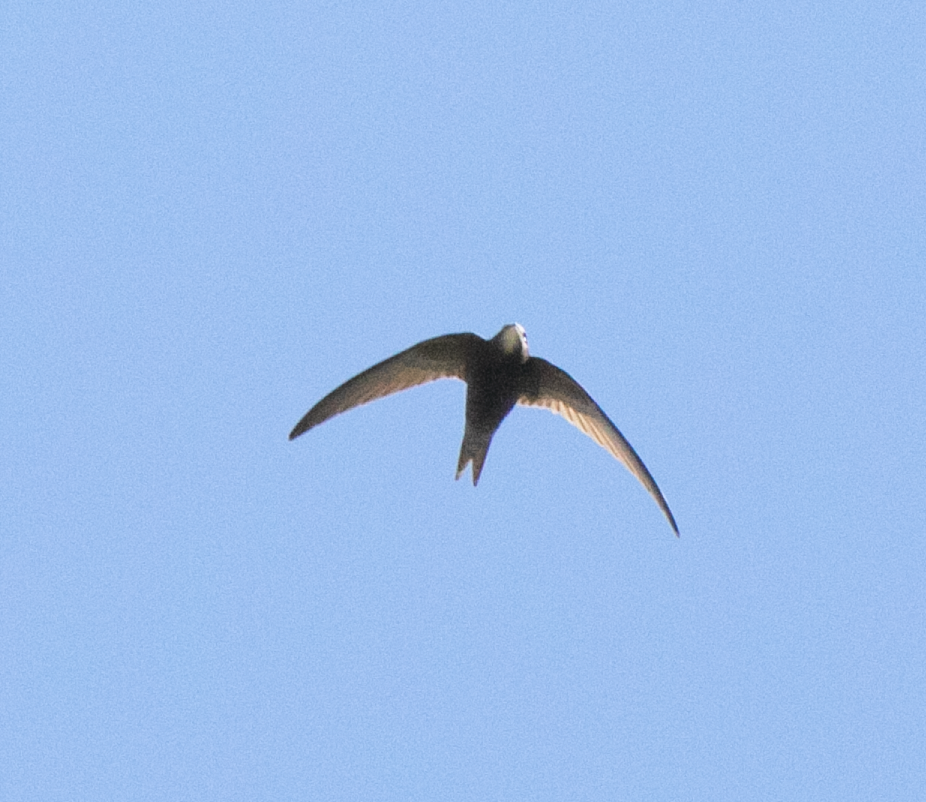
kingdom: Animalia
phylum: Chordata
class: Aves
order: Apodiformes
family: Apodidae
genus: Apus
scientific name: Apus apus
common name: Common swift
